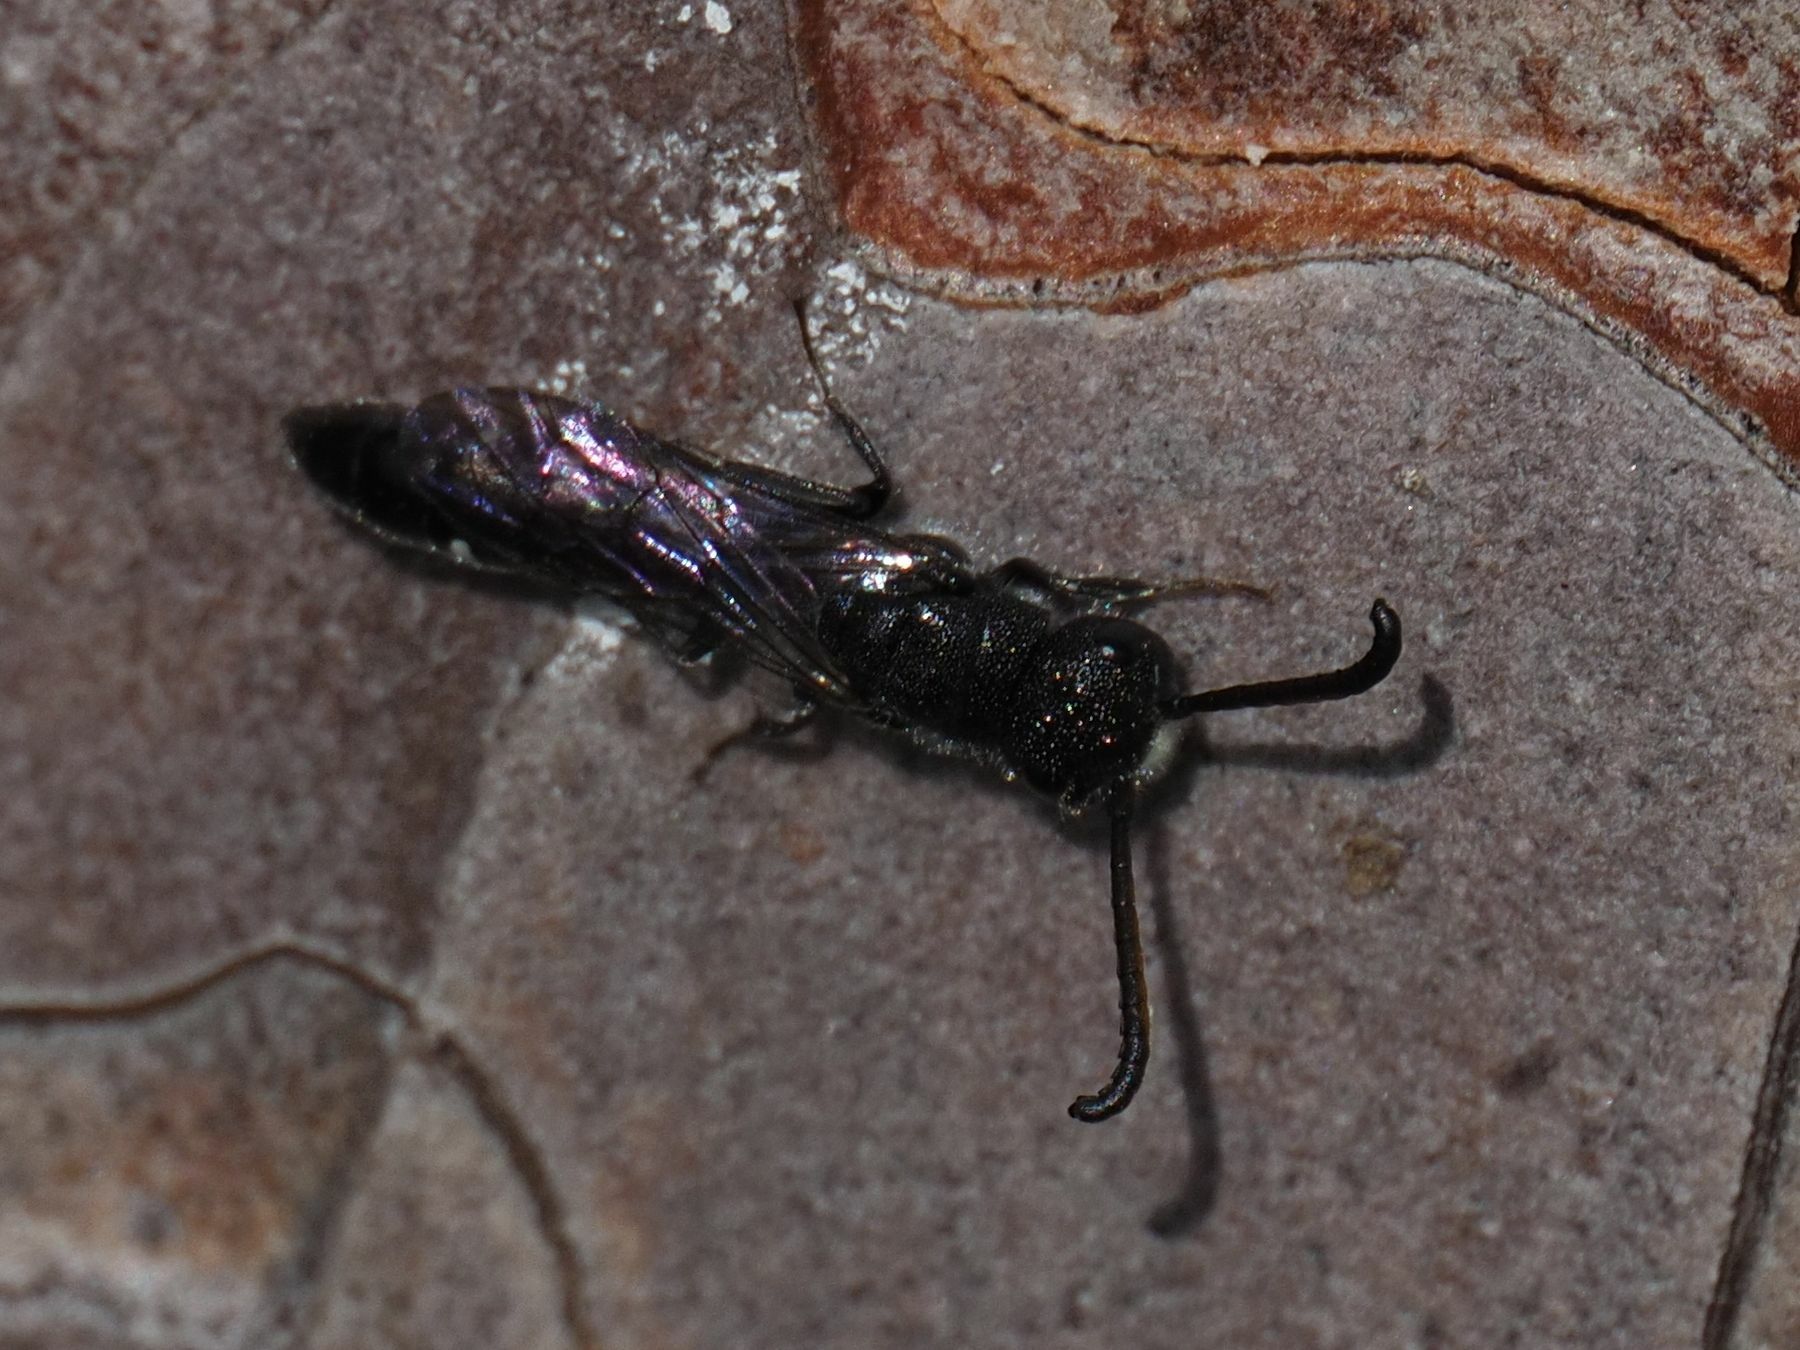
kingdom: Animalia
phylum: Arthropoda
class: Insecta
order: Hymenoptera
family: Sapygidae
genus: Sapyga
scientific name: Sapyga quinquepunctata
